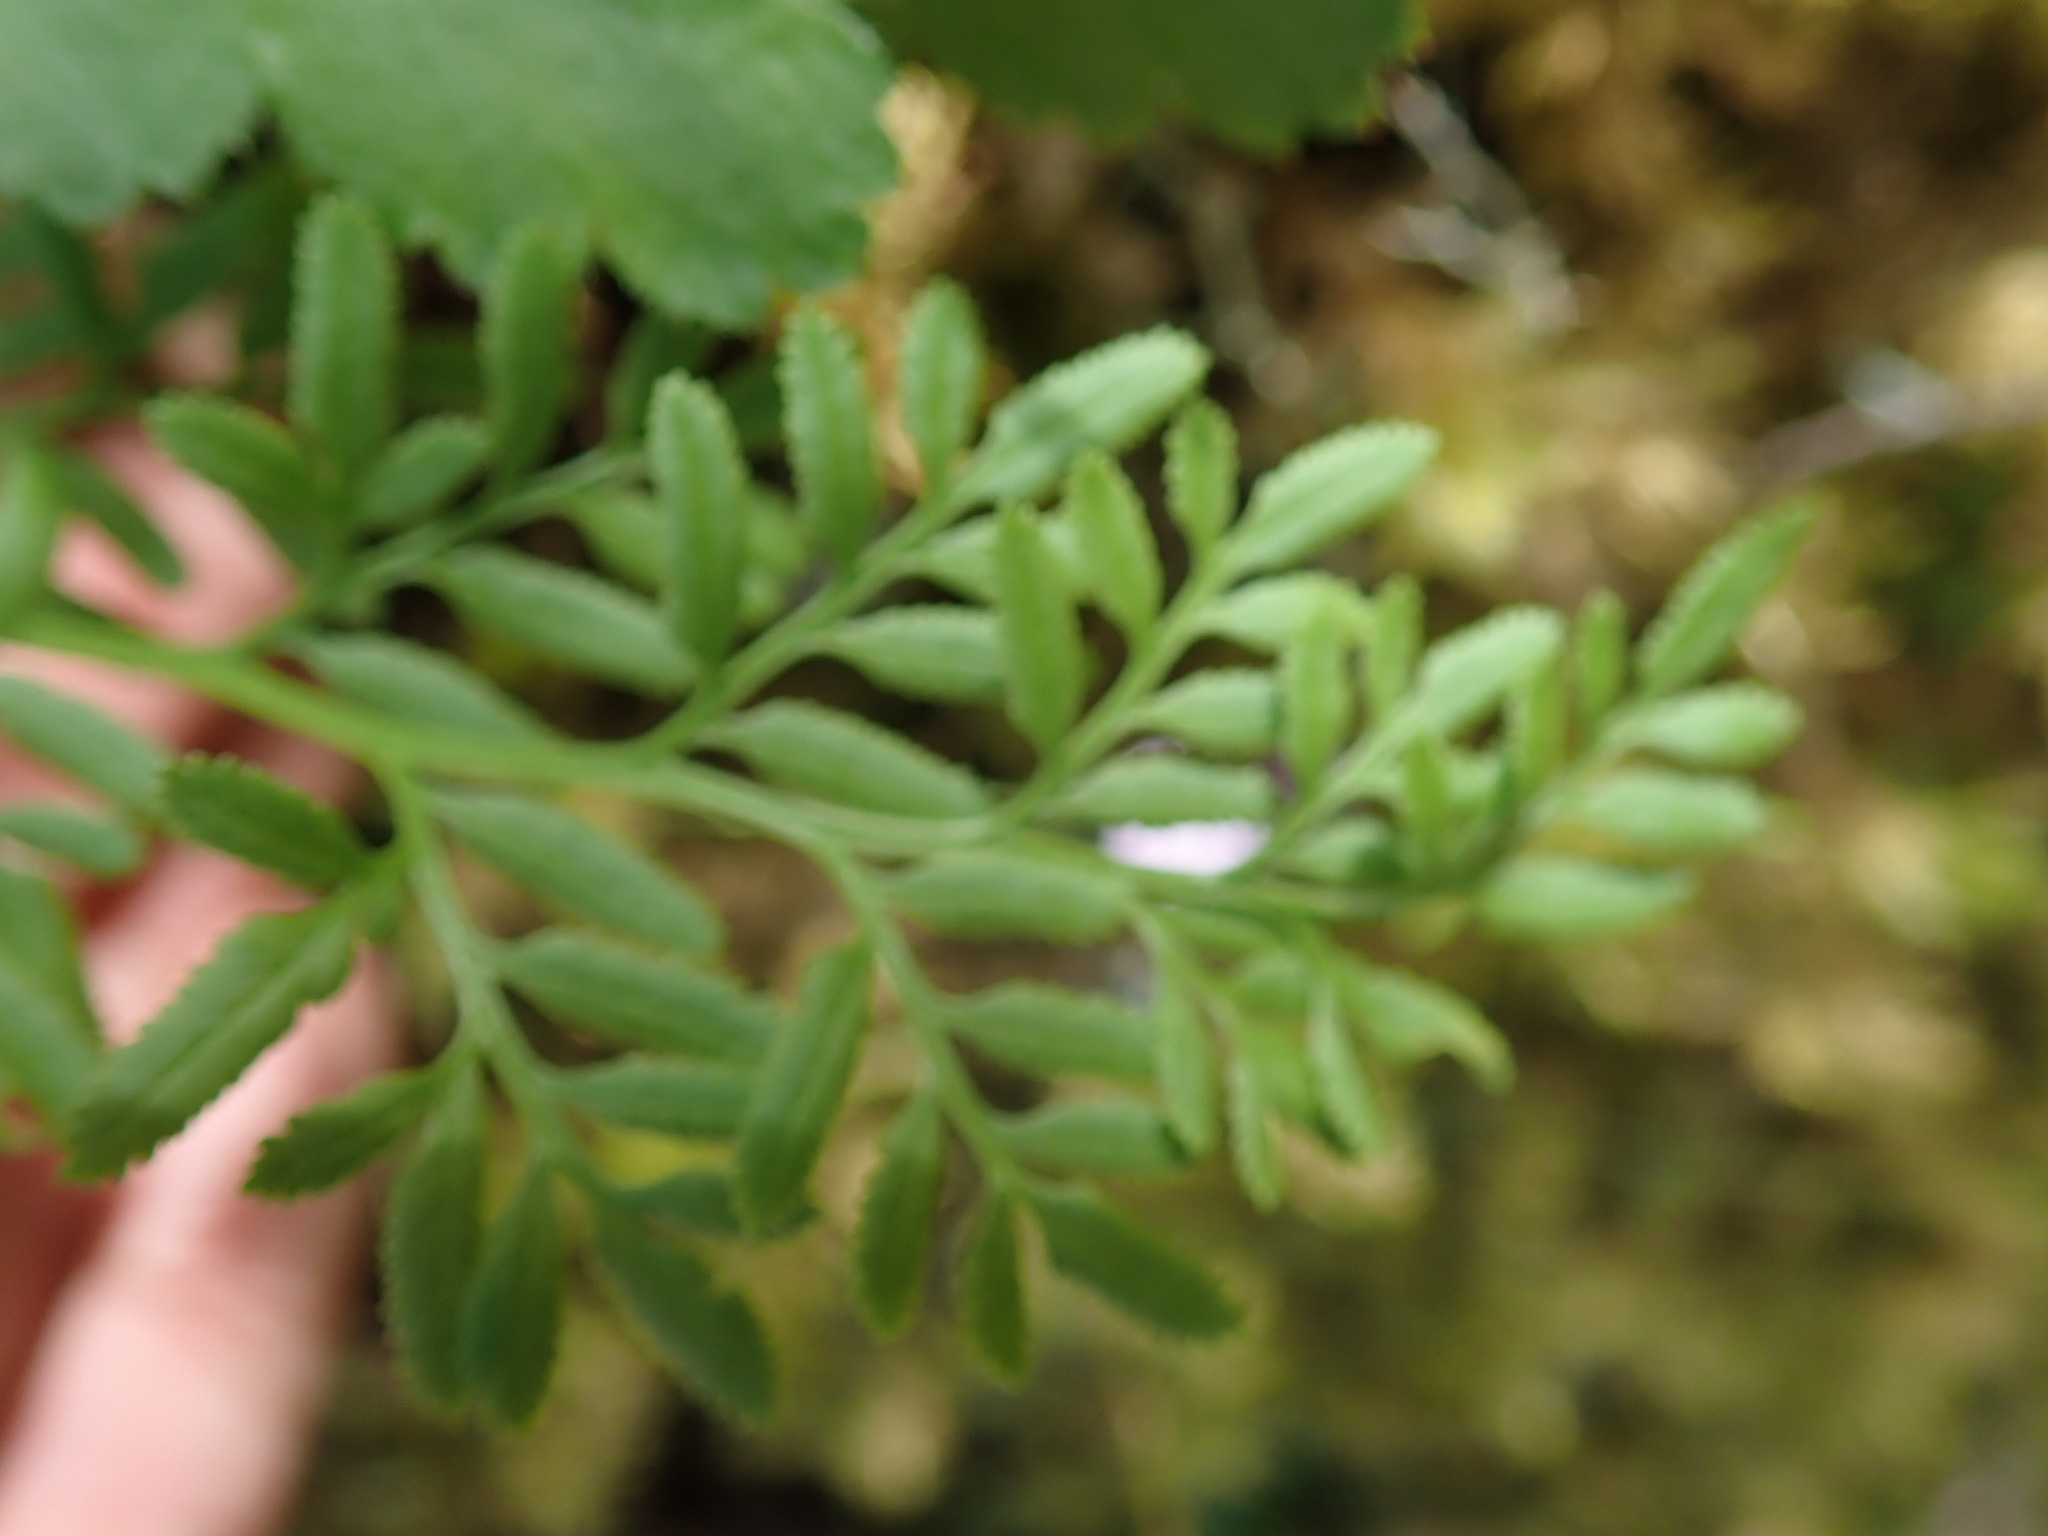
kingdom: Plantae
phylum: Tracheophyta
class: Polypodiopsida
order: Polypodiales
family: Pteridaceae
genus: Cryptogramma
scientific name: Cryptogramma acrostichoides
